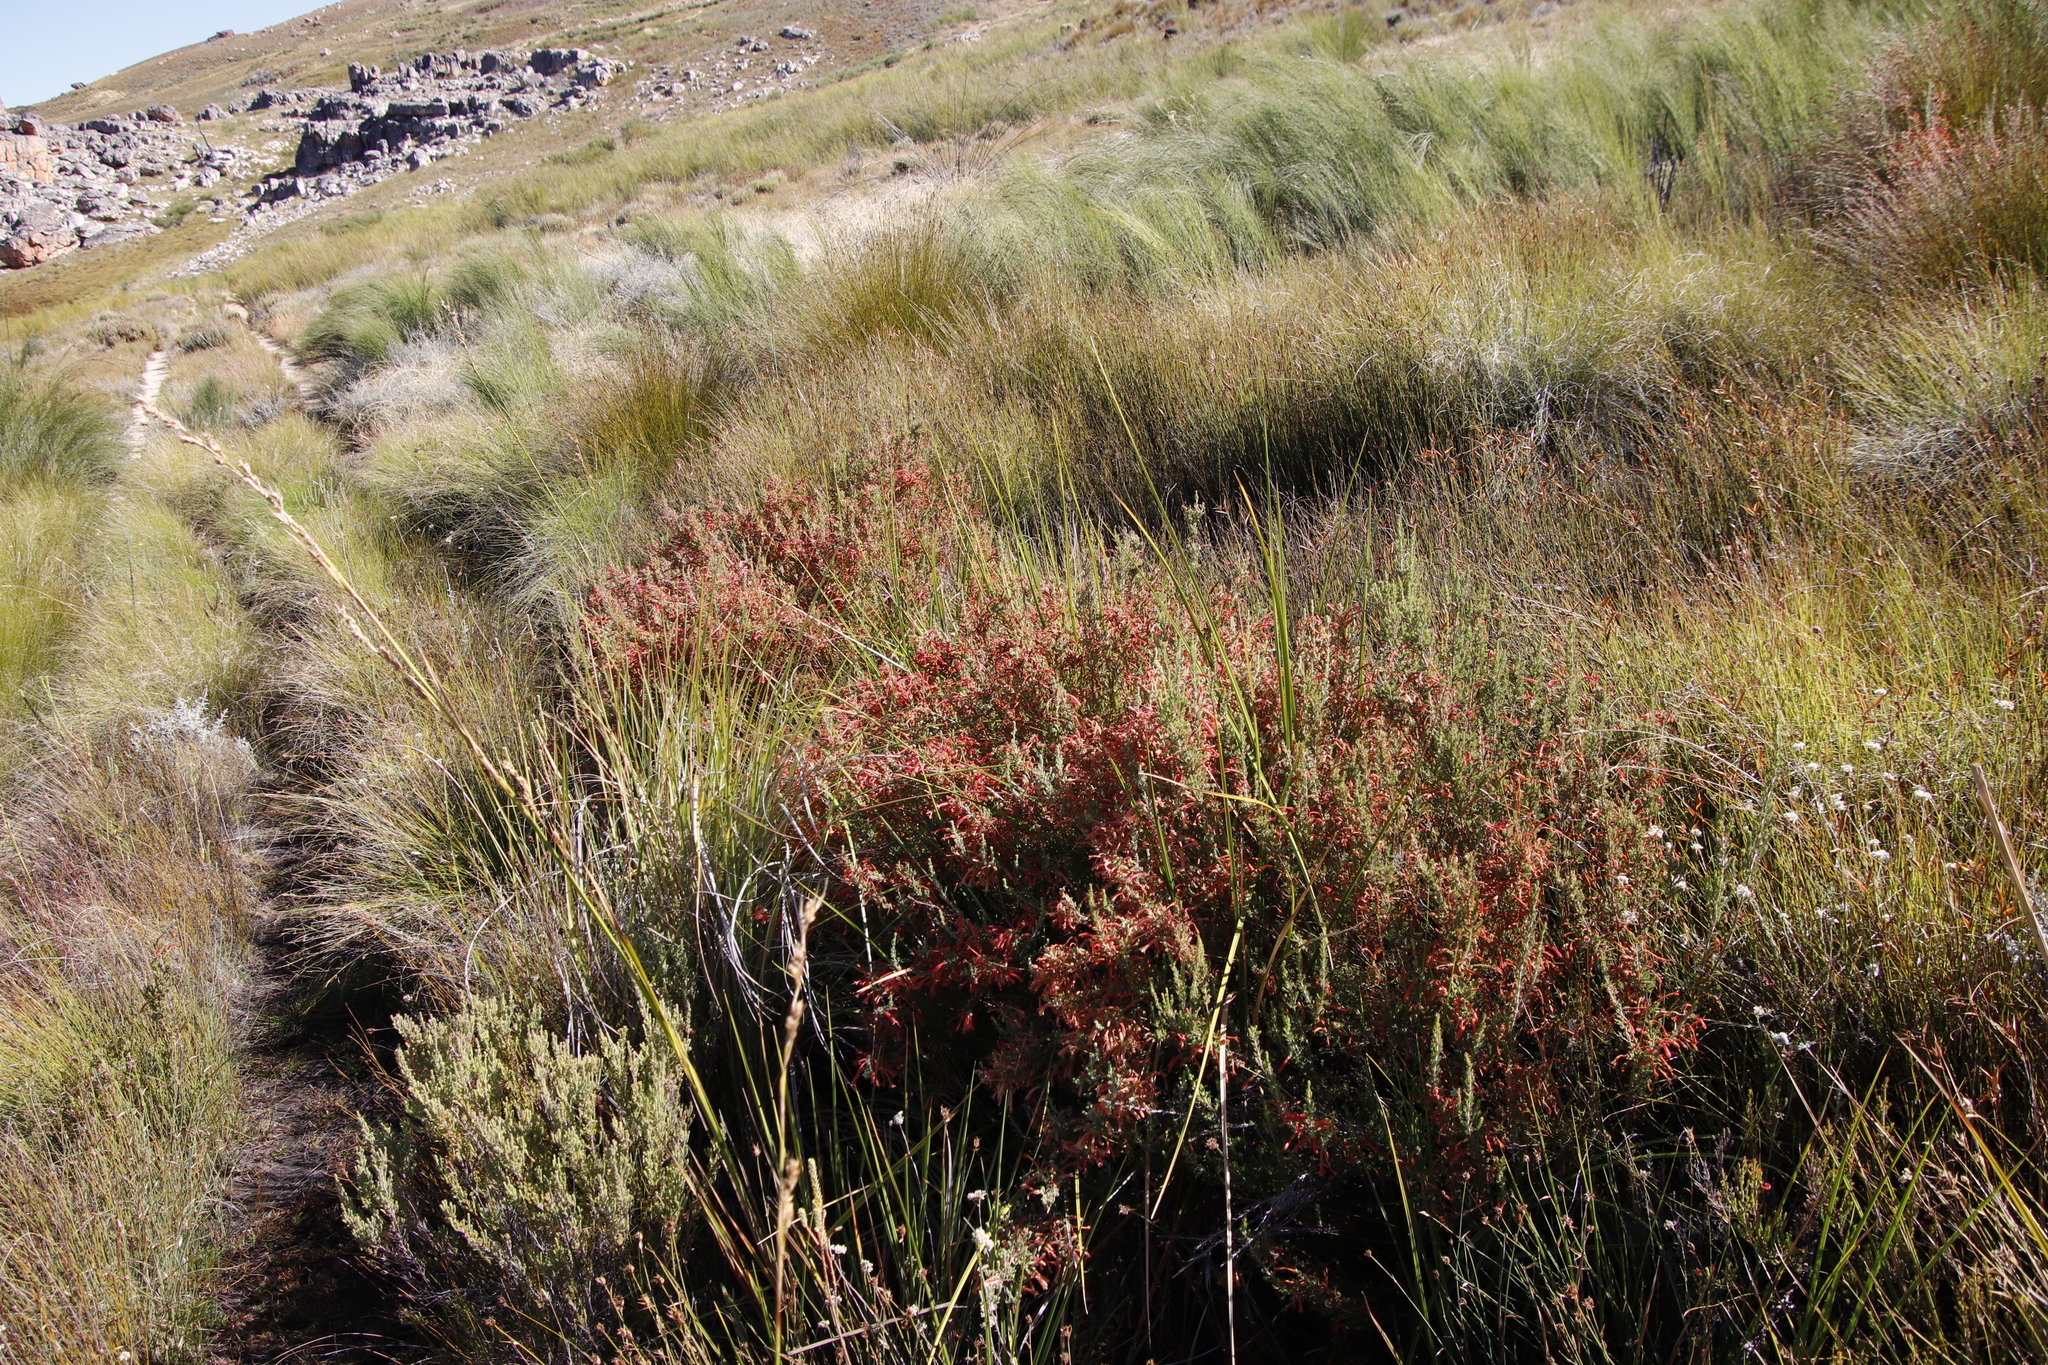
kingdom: Plantae
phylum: Tracheophyta
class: Magnoliopsida
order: Ericales
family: Ericaceae
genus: Erica
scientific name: Erica curviflora
